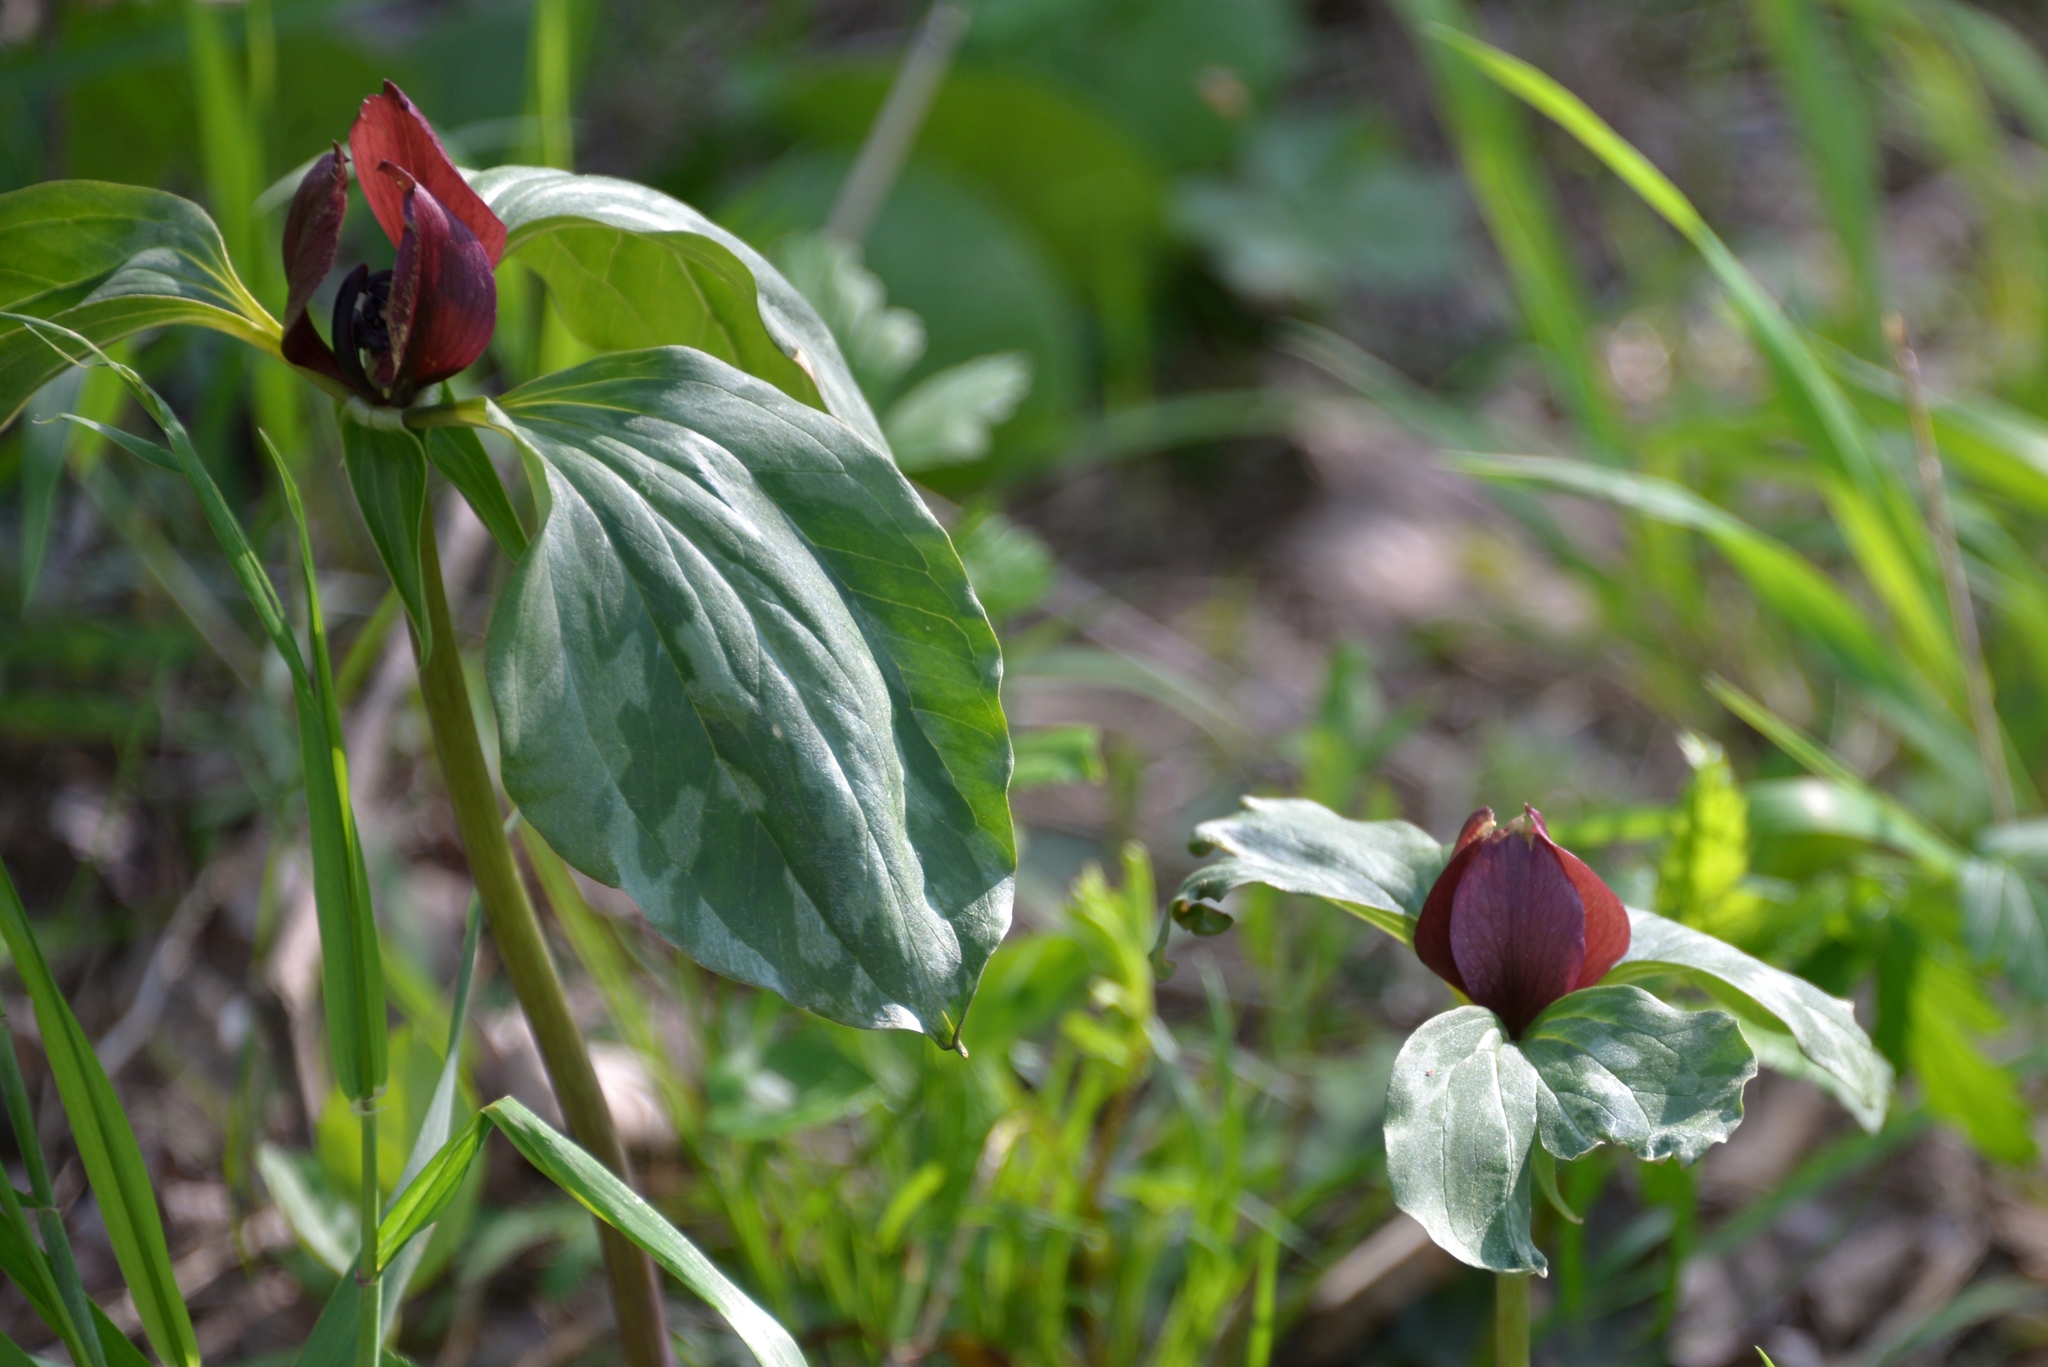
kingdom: Plantae
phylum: Tracheophyta
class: Liliopsida
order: Liliales
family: Melanthiaceae
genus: Trillium
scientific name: Trillium recurvatum
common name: Bloody butcher
